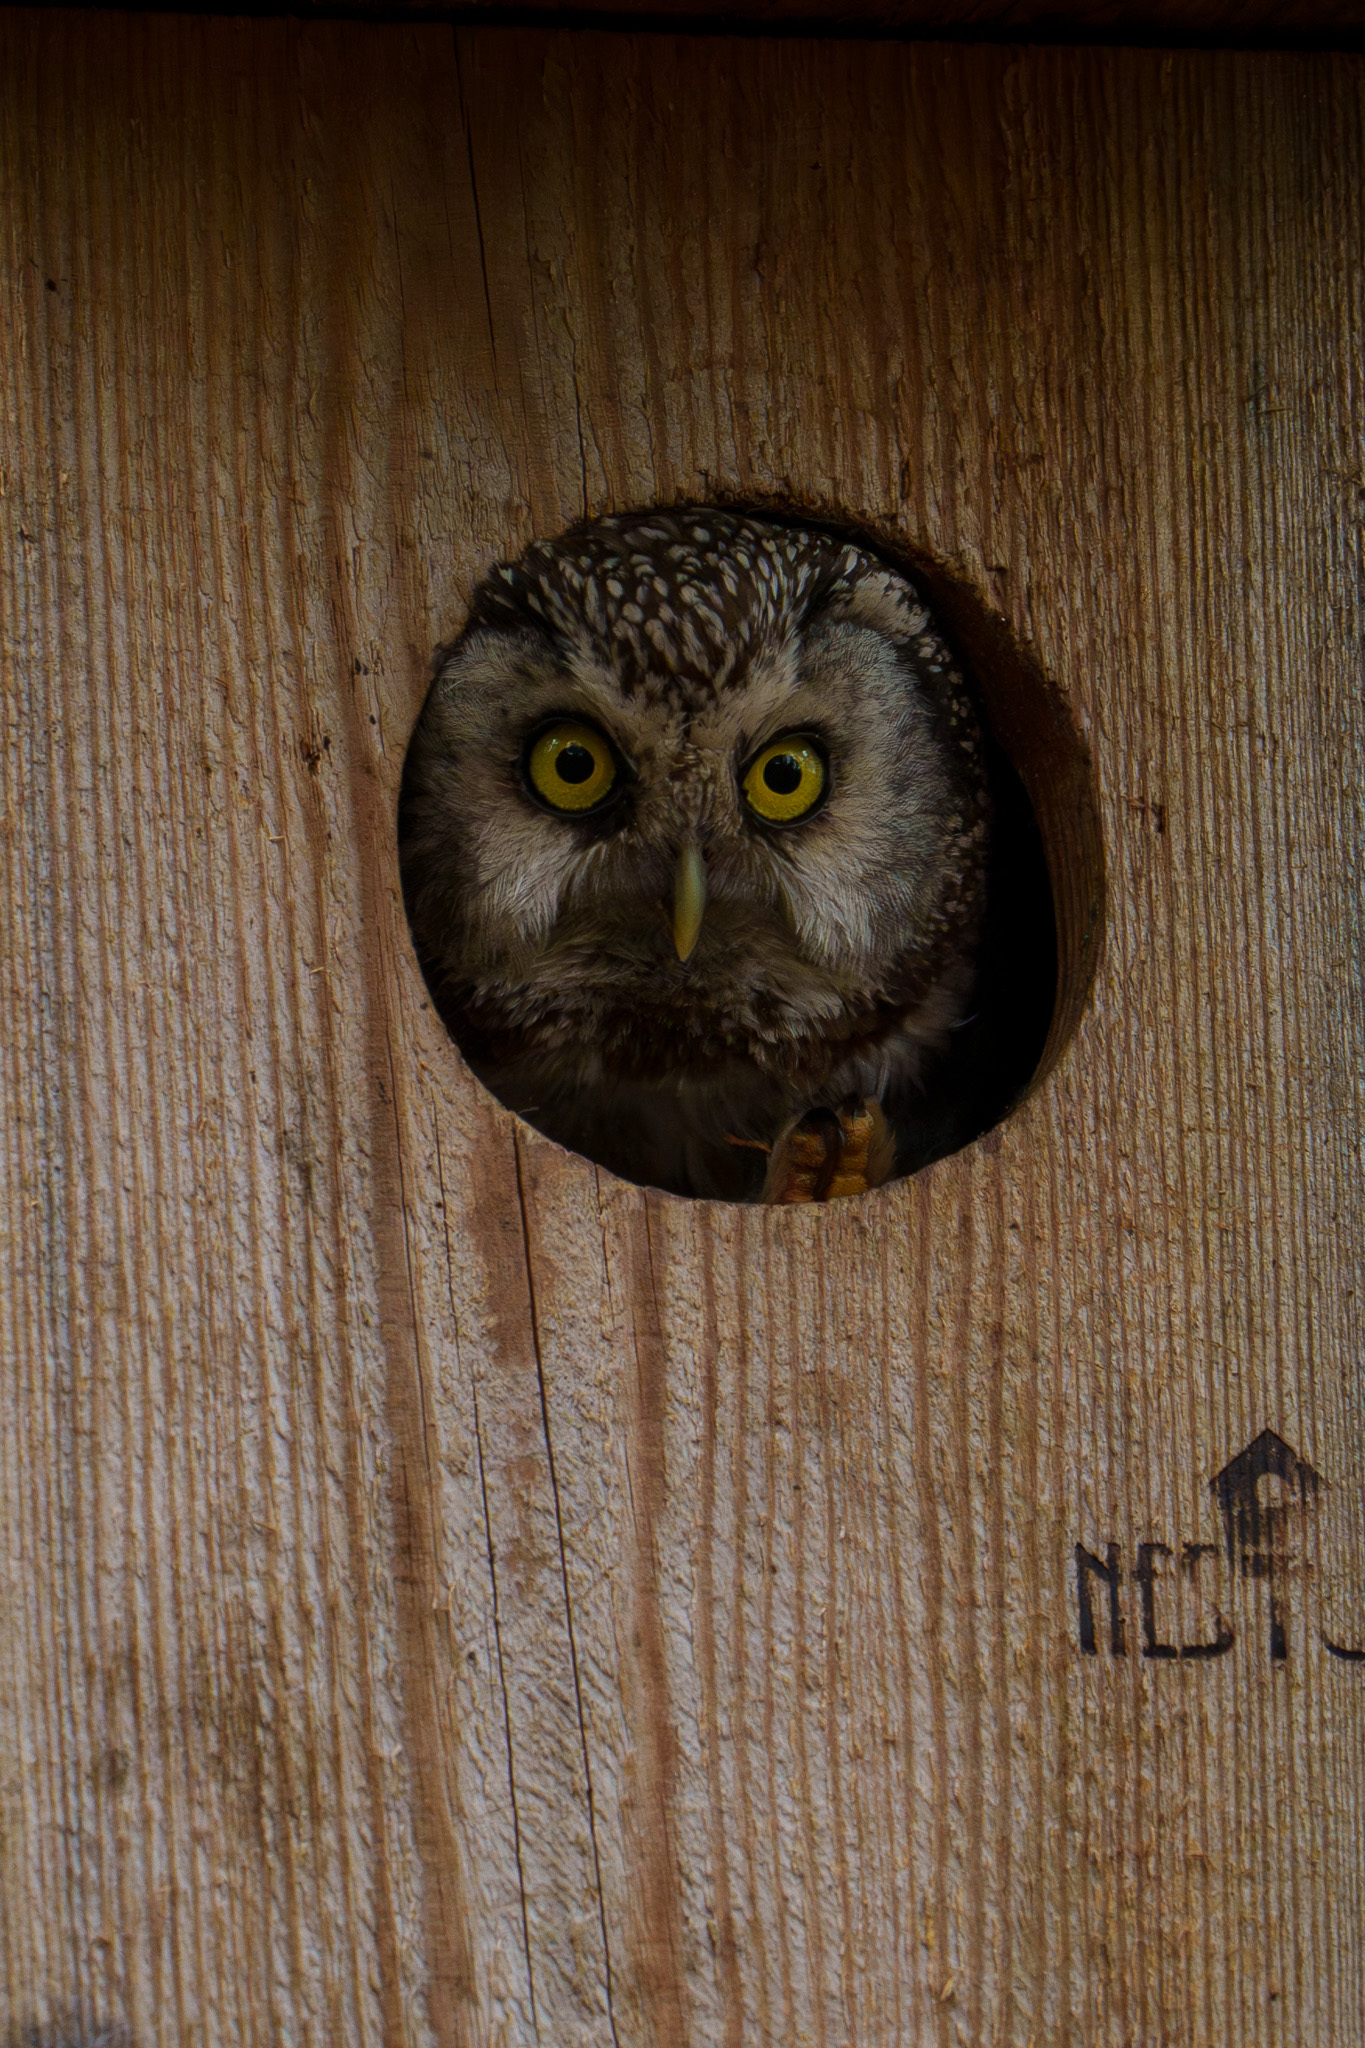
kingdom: Animalia
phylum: Chordata
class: Aves
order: Strigiformes
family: Strigidae
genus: Aegolius
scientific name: Aegolius funereus
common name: Boreal owl
